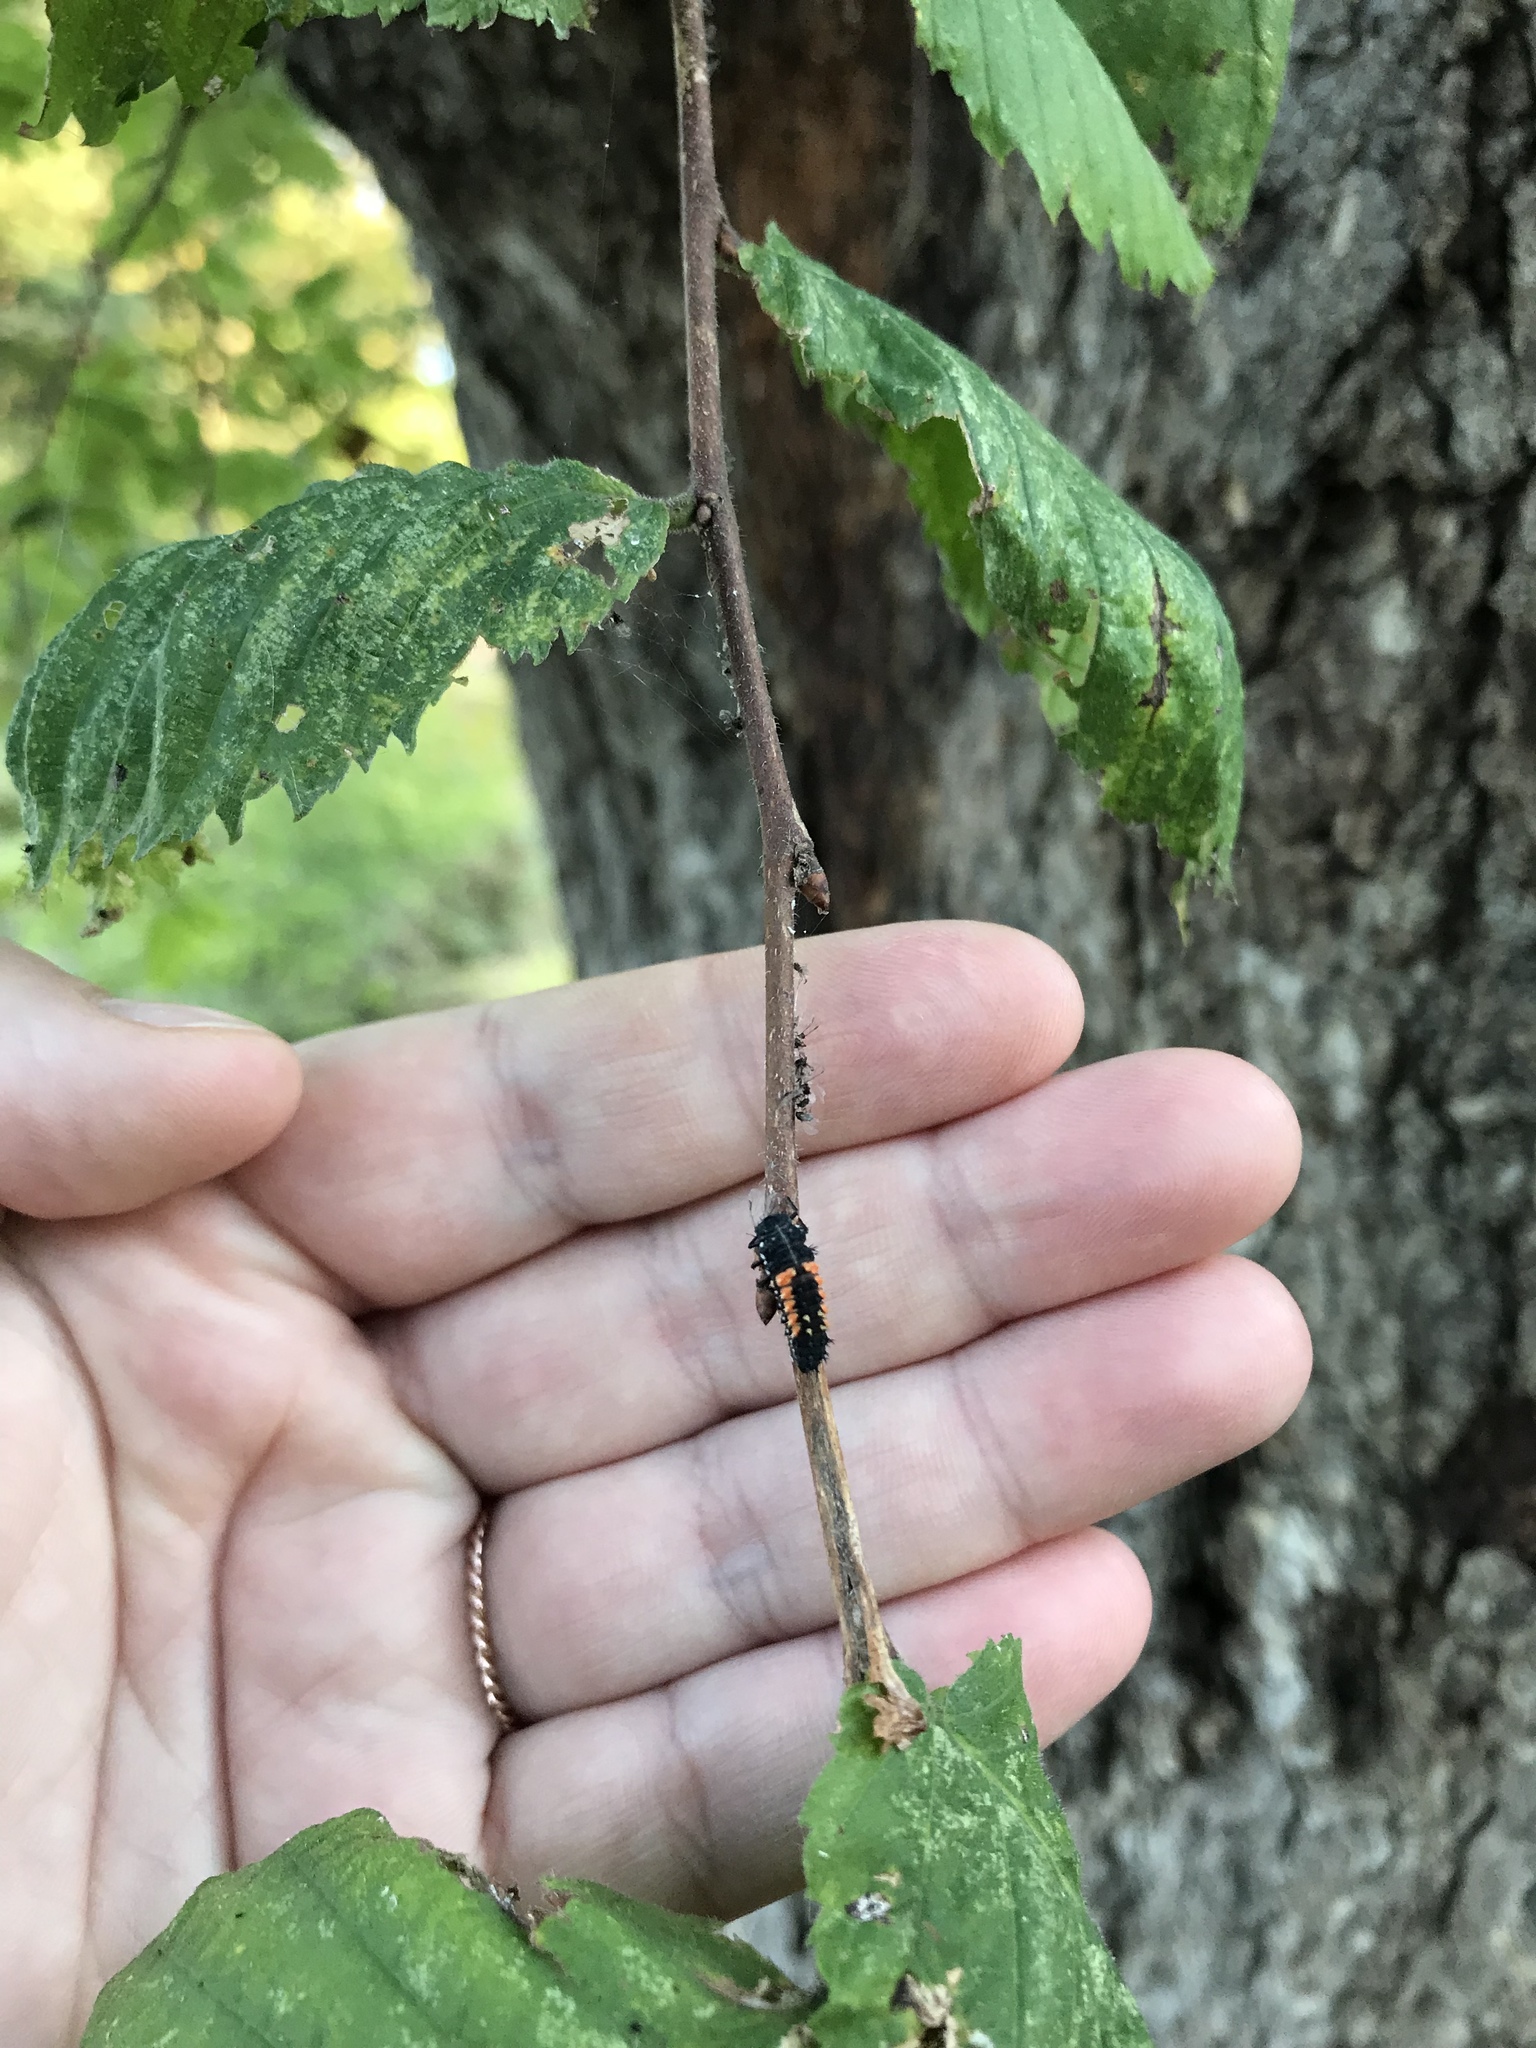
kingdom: Animalia
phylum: Arthropoda
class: Insecta
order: Coleoptera
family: Coccinellidae
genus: Harmonia
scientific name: Harmonia axyridis
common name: Harlequin ladybird
